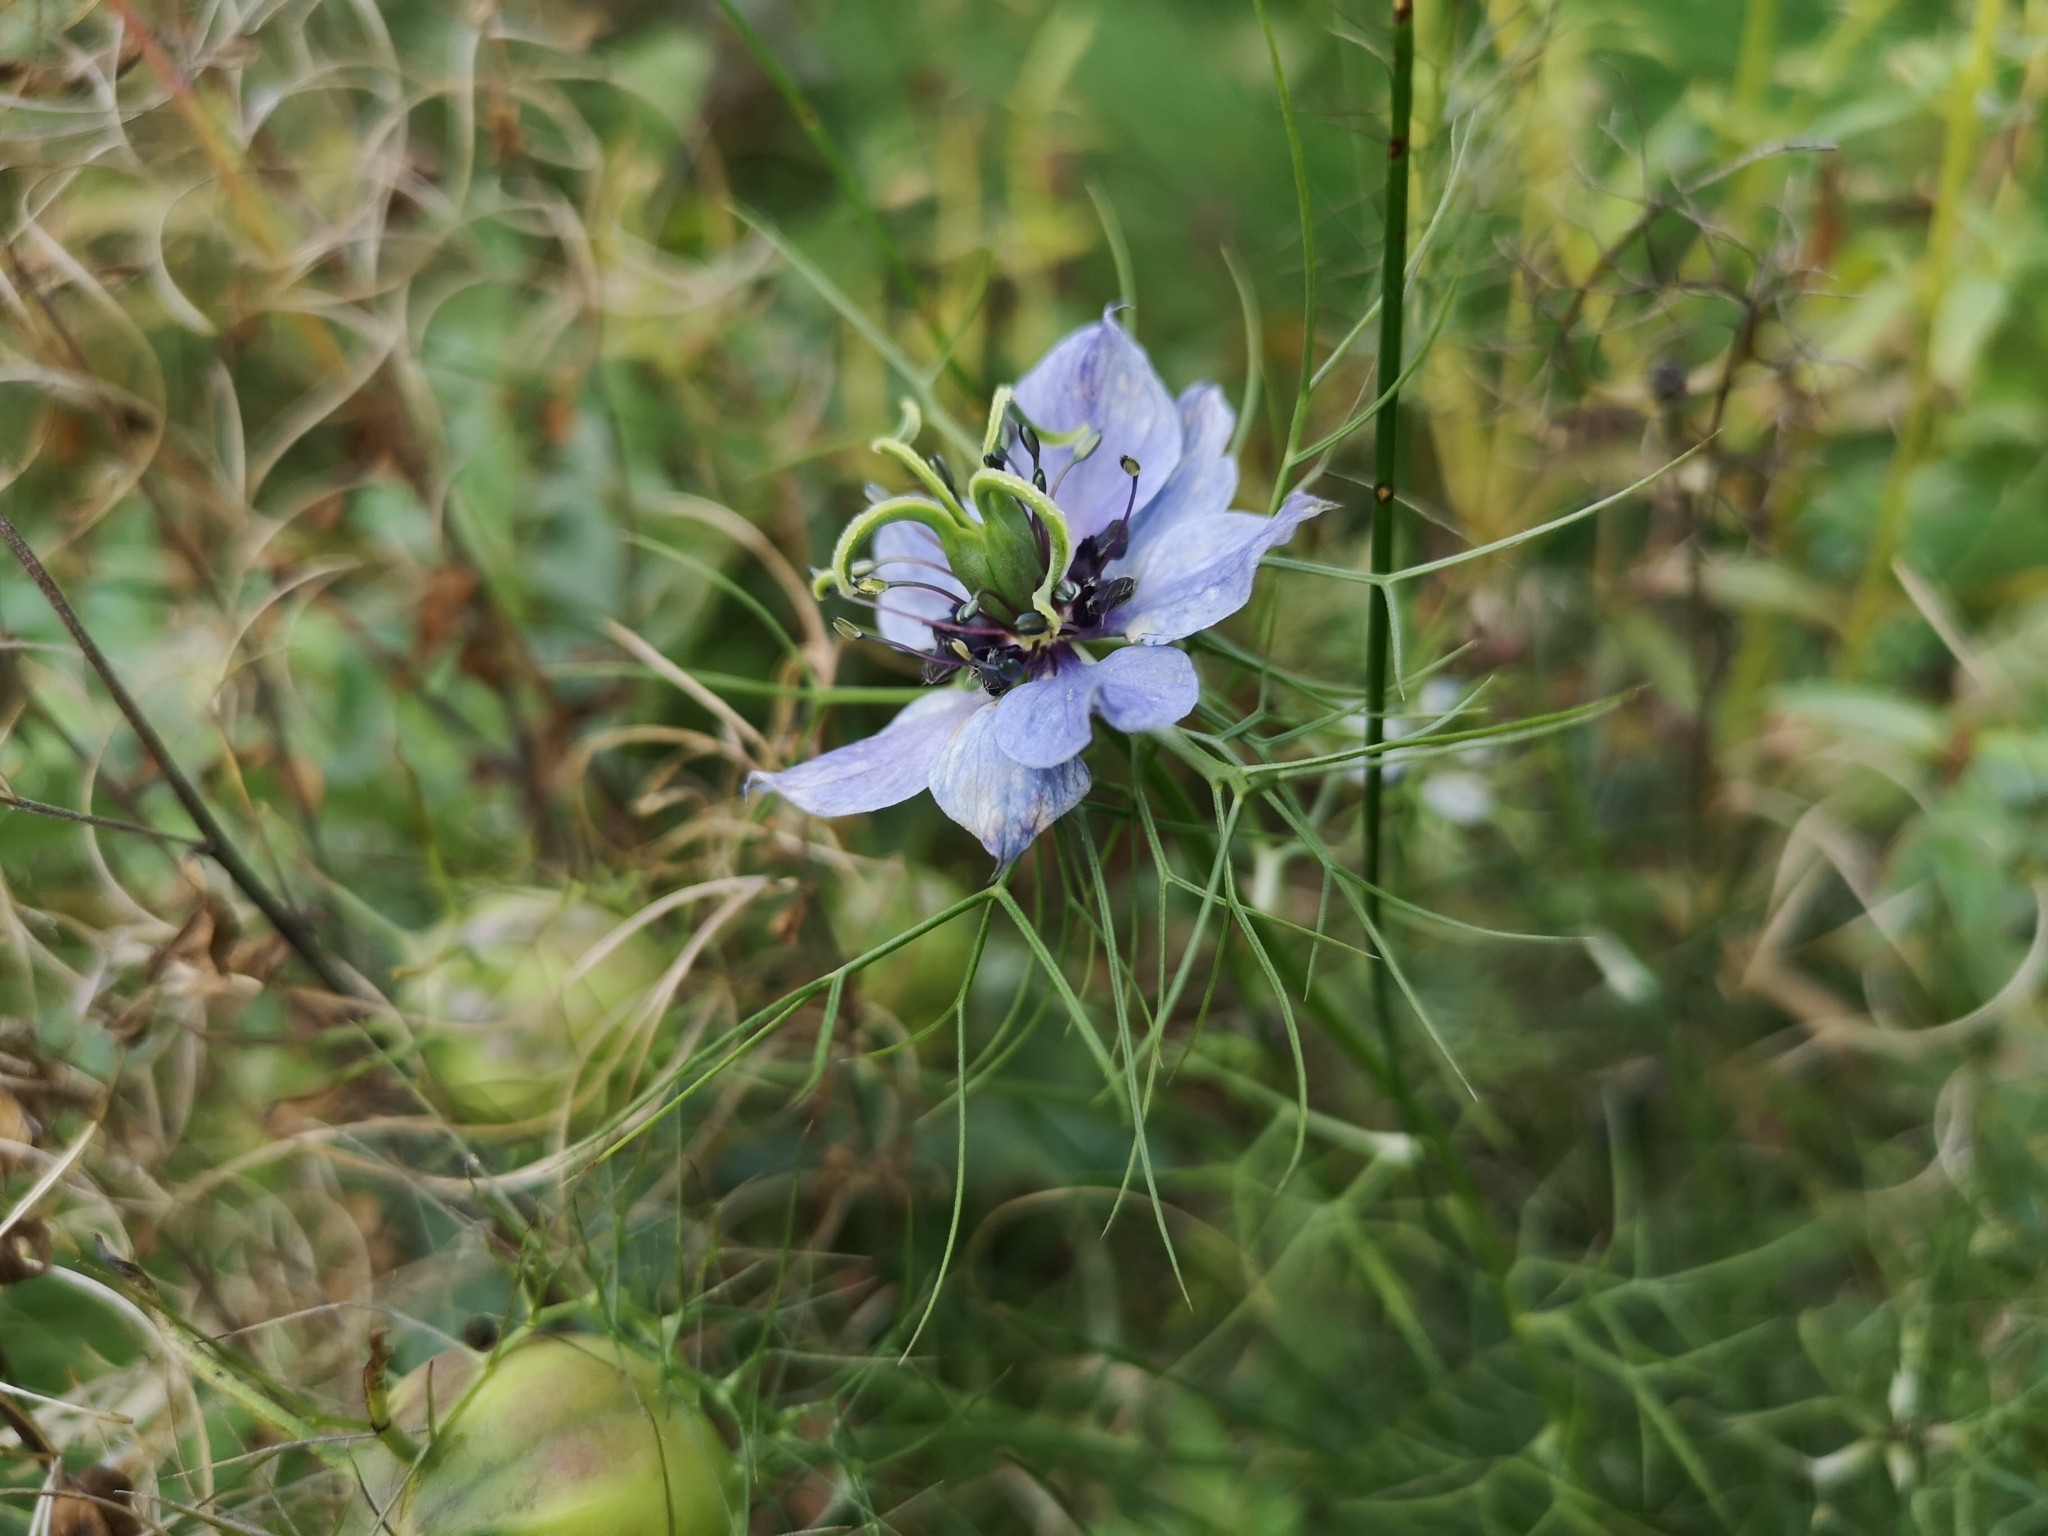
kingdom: Plantae
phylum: Tracheophyta
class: Magnoliopsida
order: Ranunculales
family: Ranunculaceae
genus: Nigella
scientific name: Nigella damascena
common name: Love-in-a-mist
